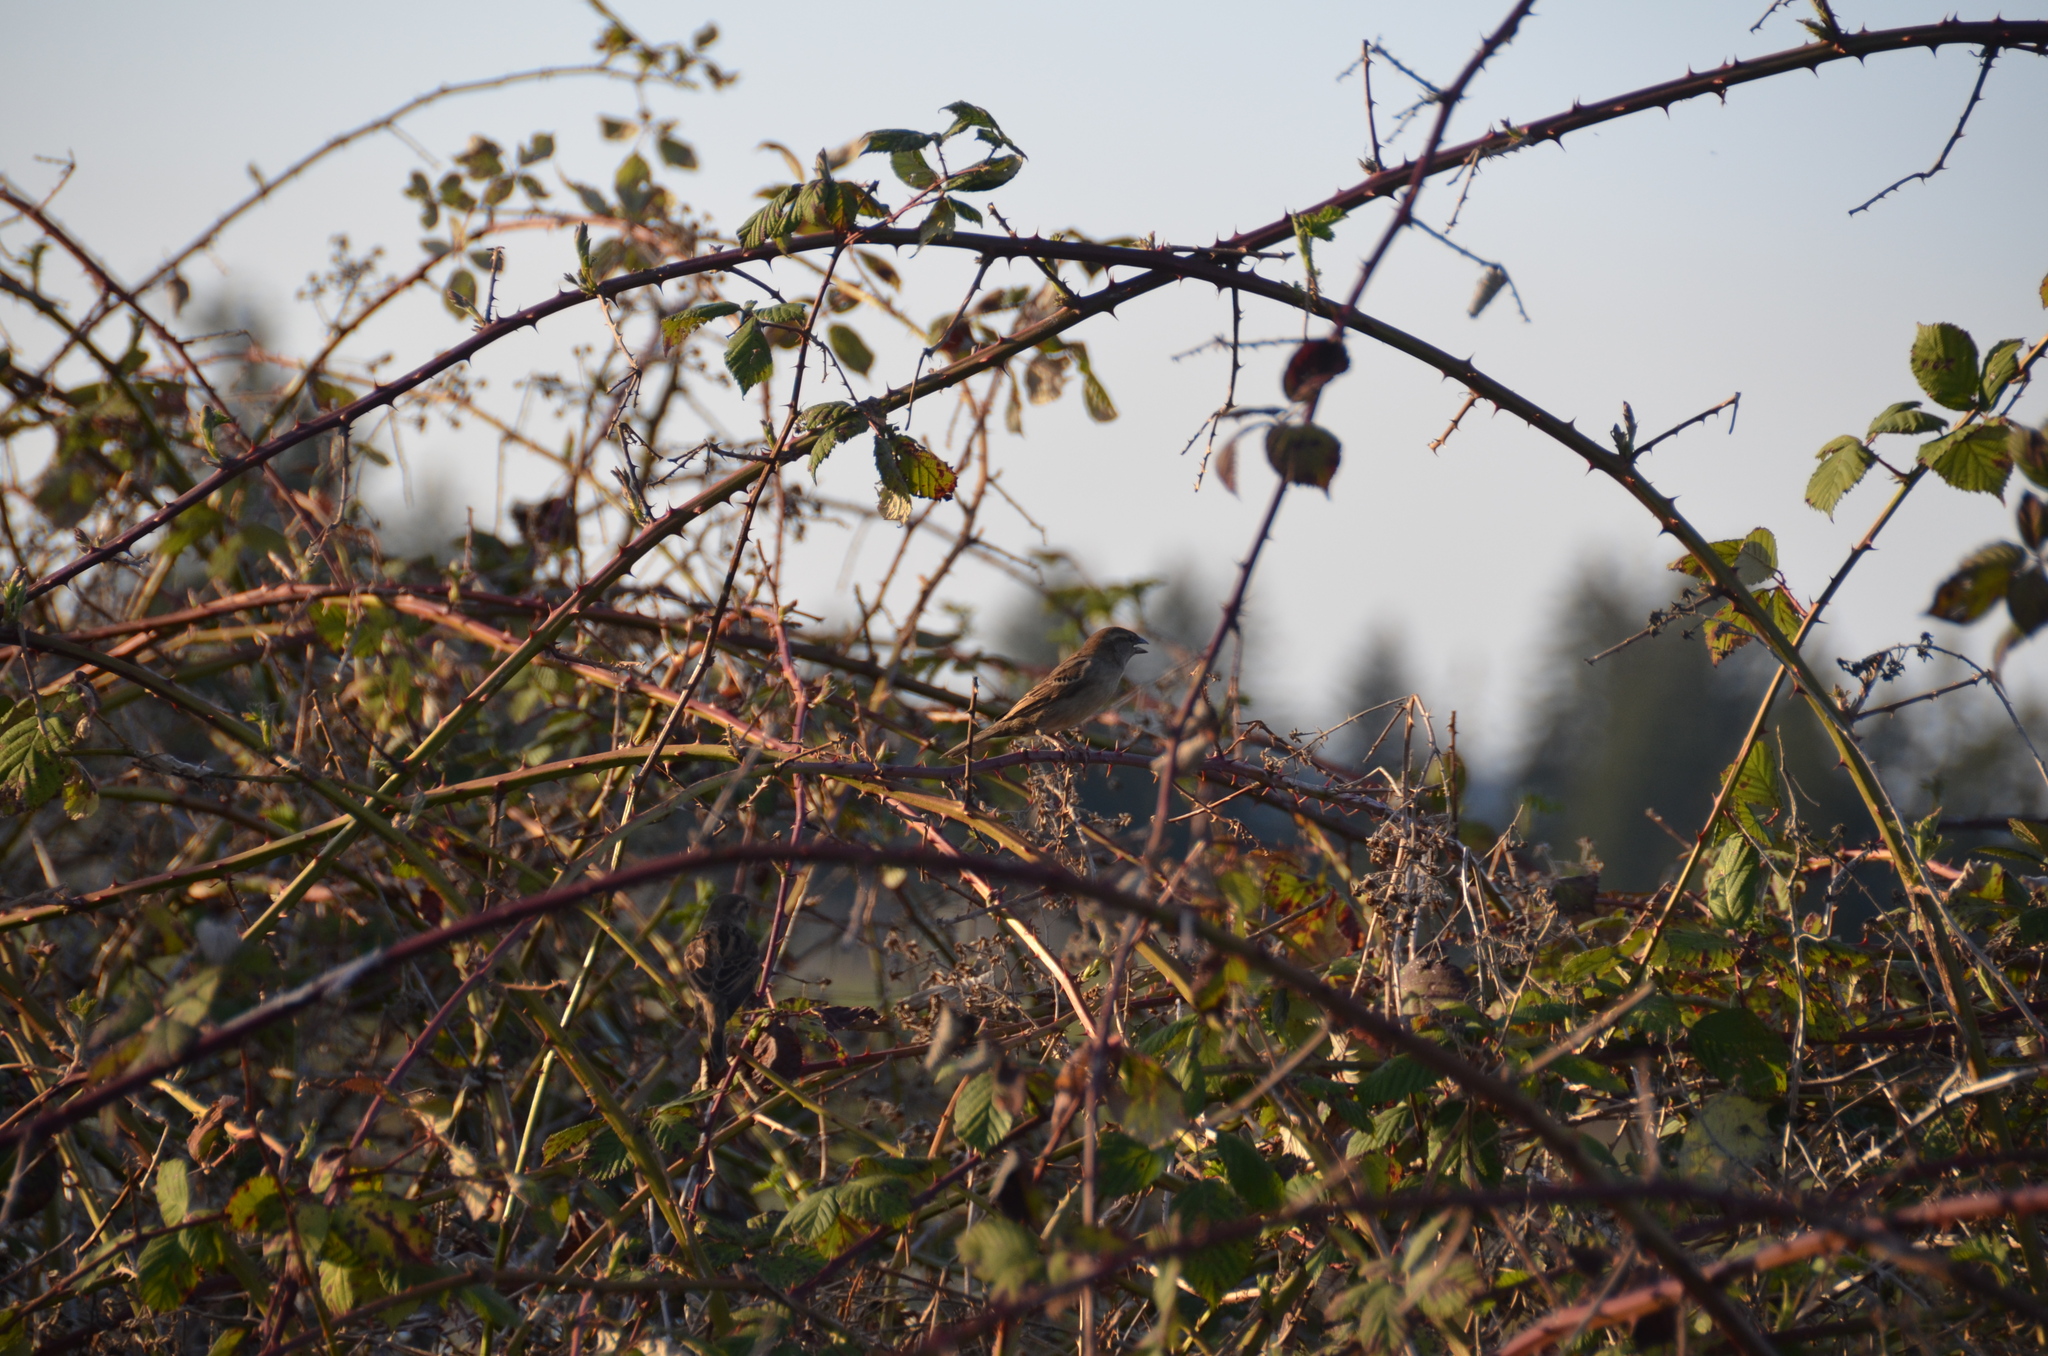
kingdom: Animalia
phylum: Chordata
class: Aves
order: Passeriformes
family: Passeridae
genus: Passer
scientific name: Passer domesticus
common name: House sparrow
